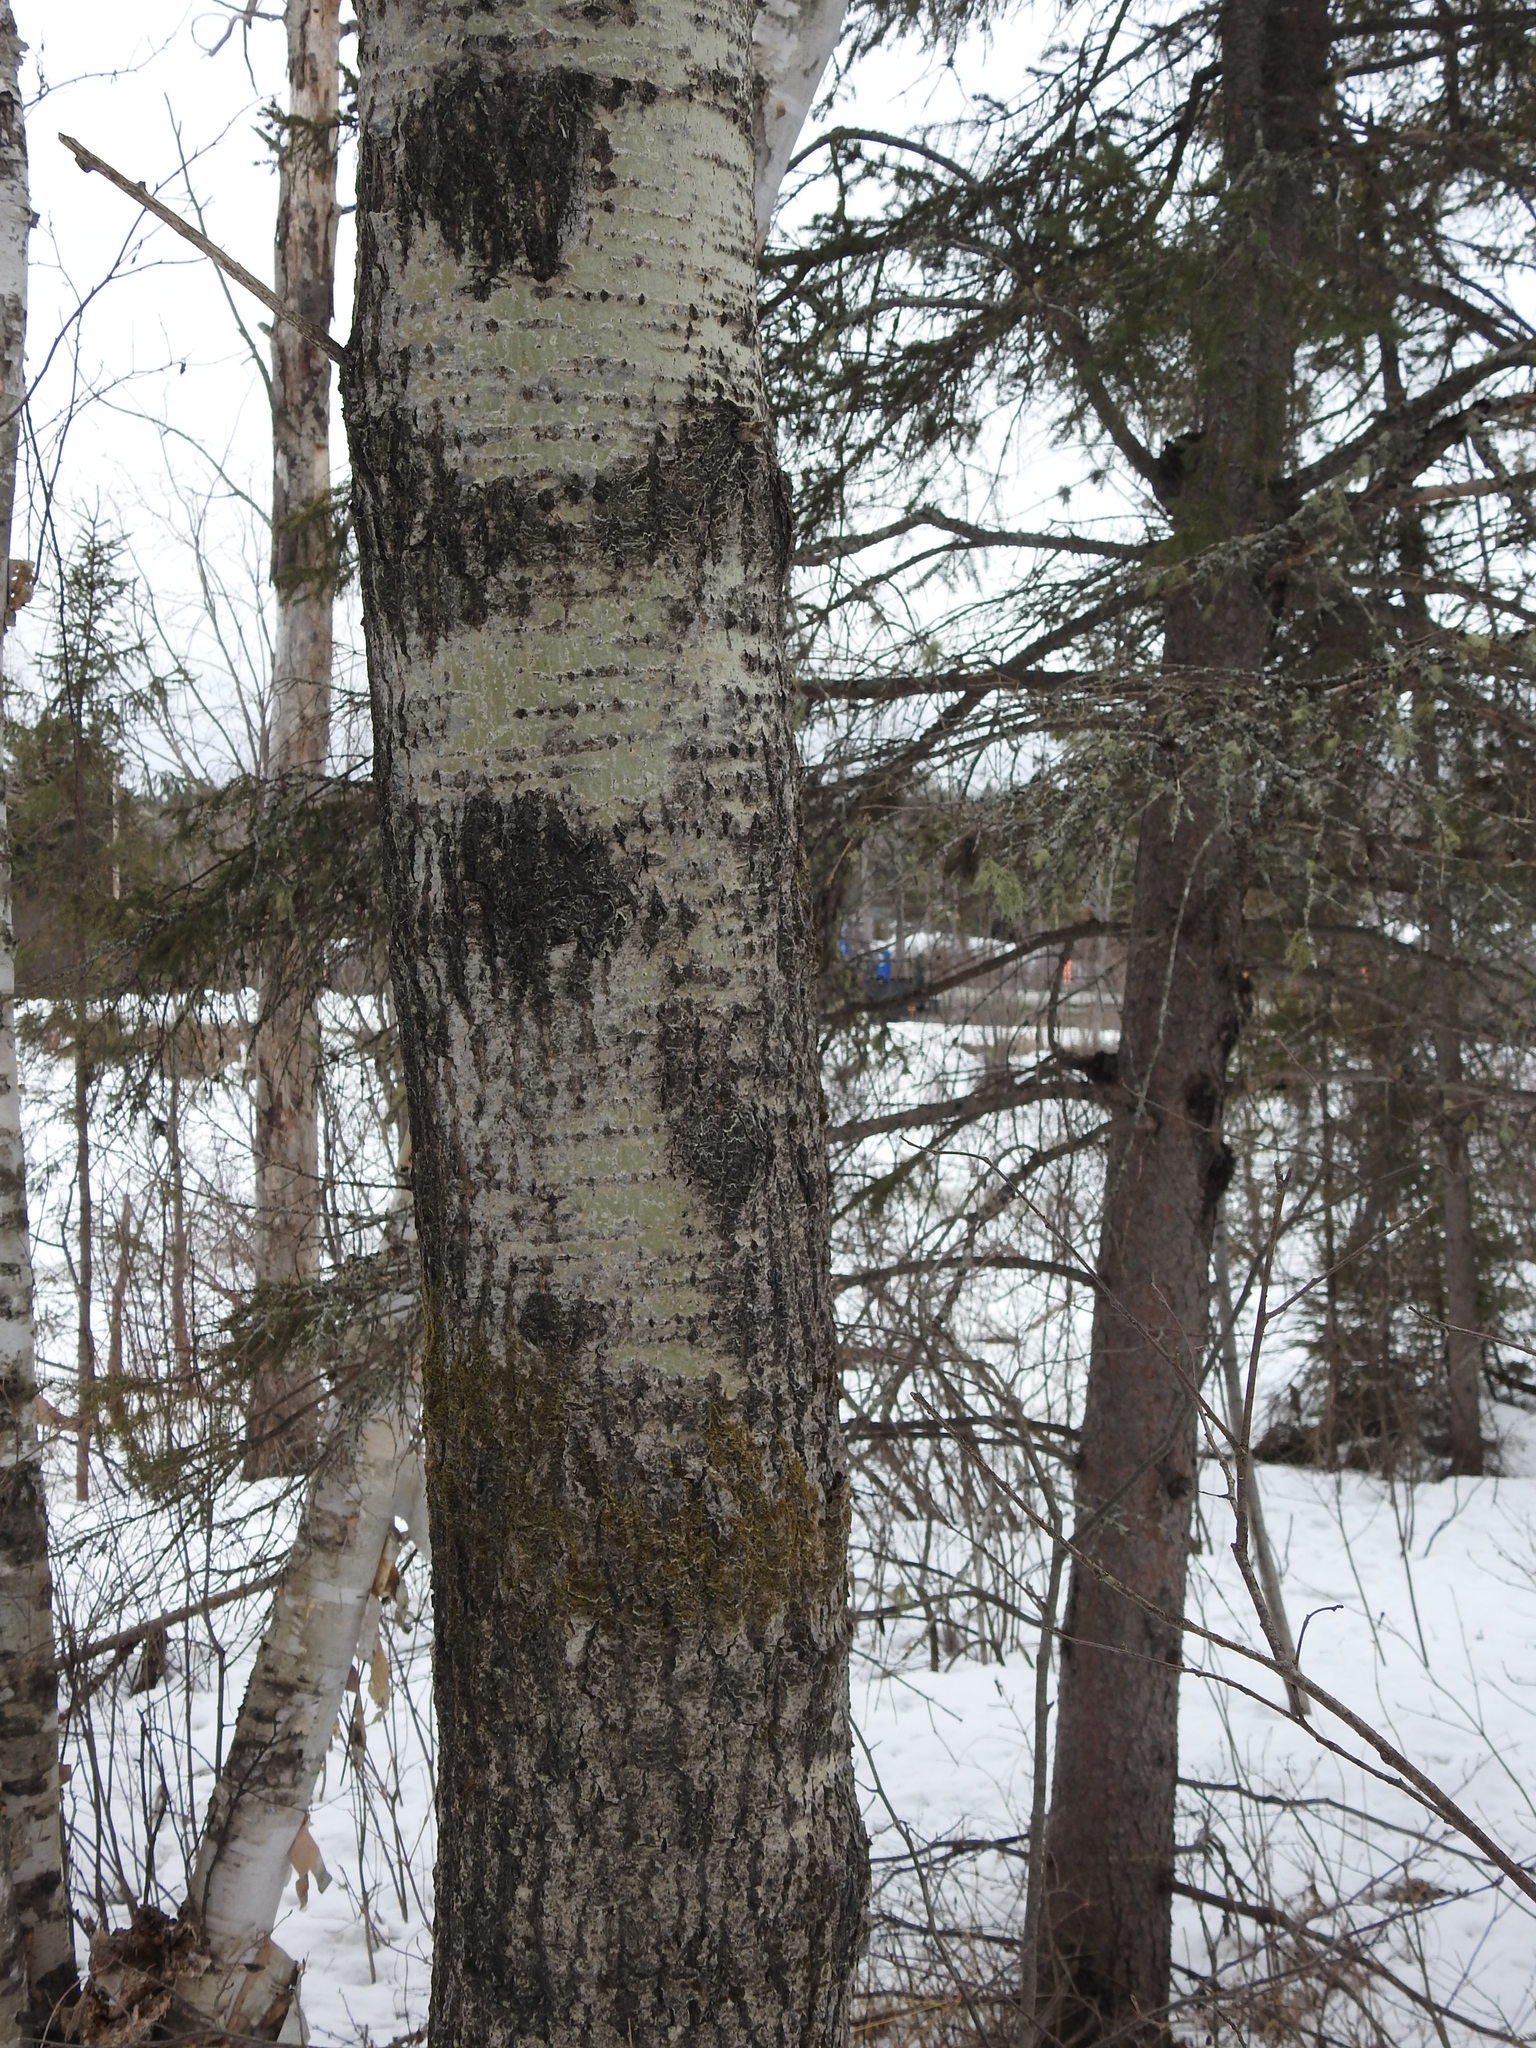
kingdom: Plantae
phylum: Tracheophyta
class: Magnoliopsida
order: Malpighiales
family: Salicaceae
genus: Populus
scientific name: Populus tremuloides
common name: Quaking aspen
